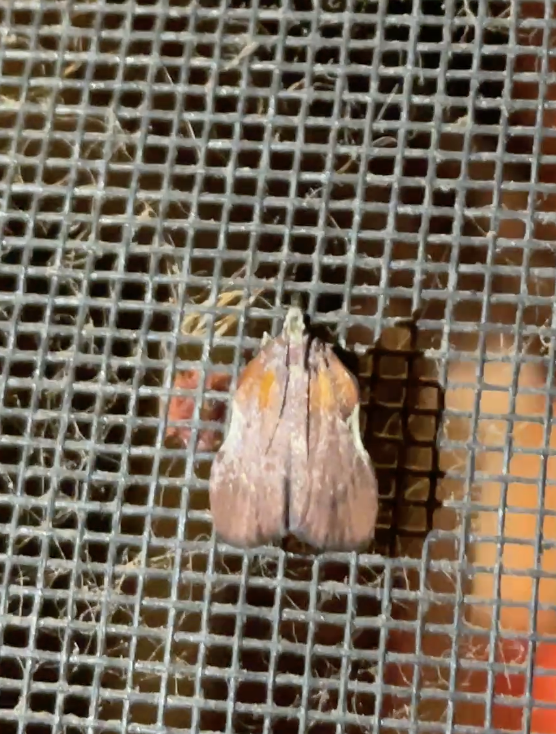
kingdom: Animalia
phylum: Arthropoda
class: Insecta
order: Lepidoptera
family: Pyralidae
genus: Galasa
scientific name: Galasa nigrinodis
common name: Boxwood leaftier moth
